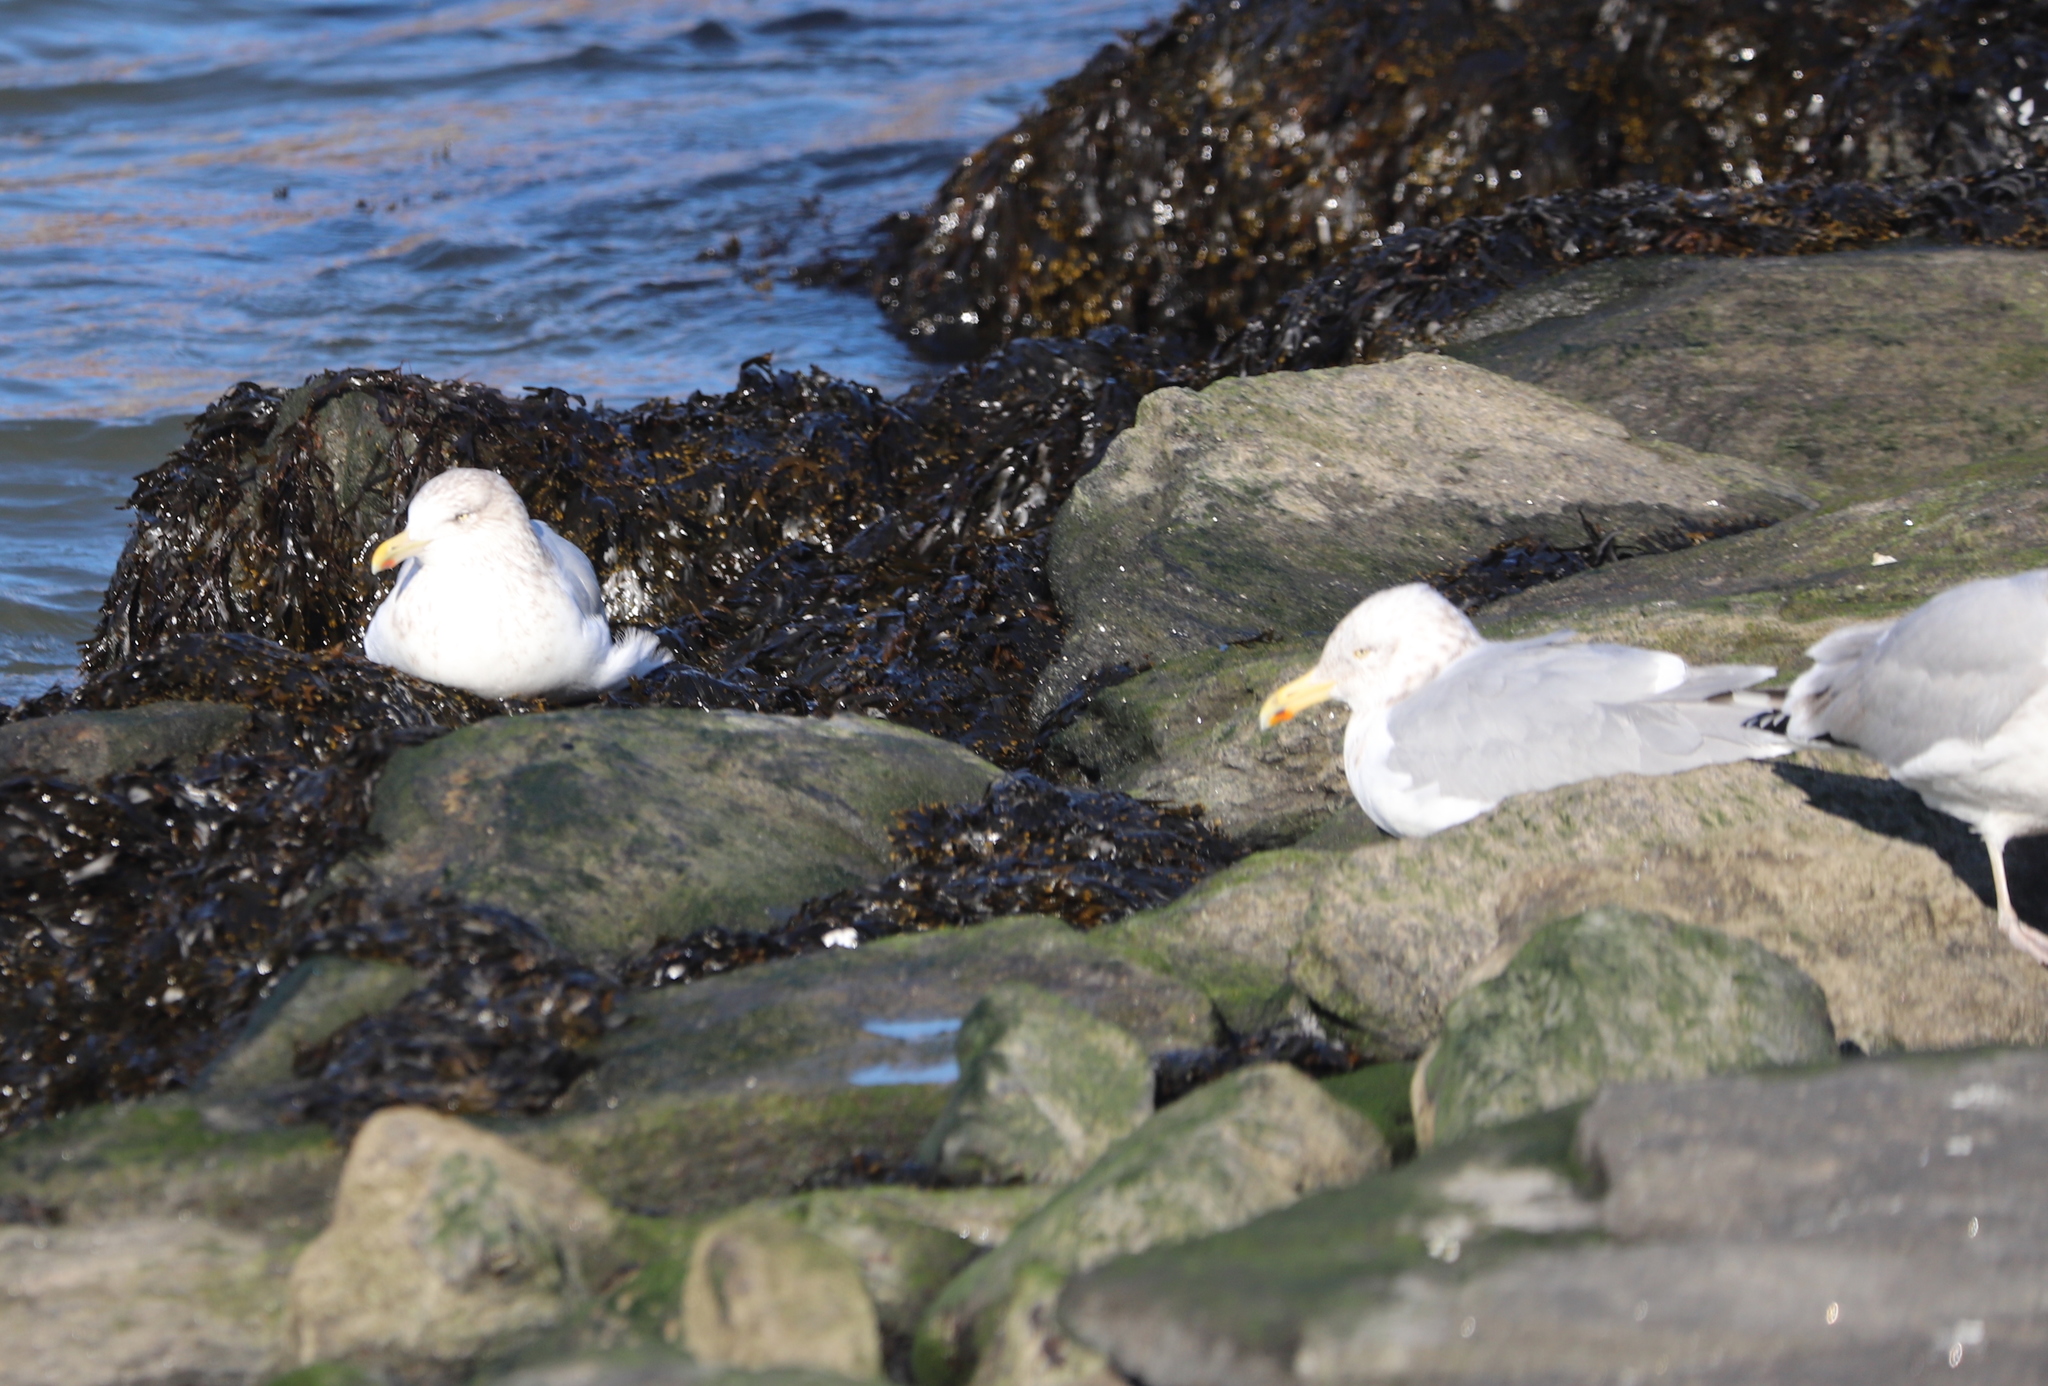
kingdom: Animalia
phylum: Chordata
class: Aves
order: Charadriiformes
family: Laridae
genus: Larus
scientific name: Larus argentatus
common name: Herring gull
